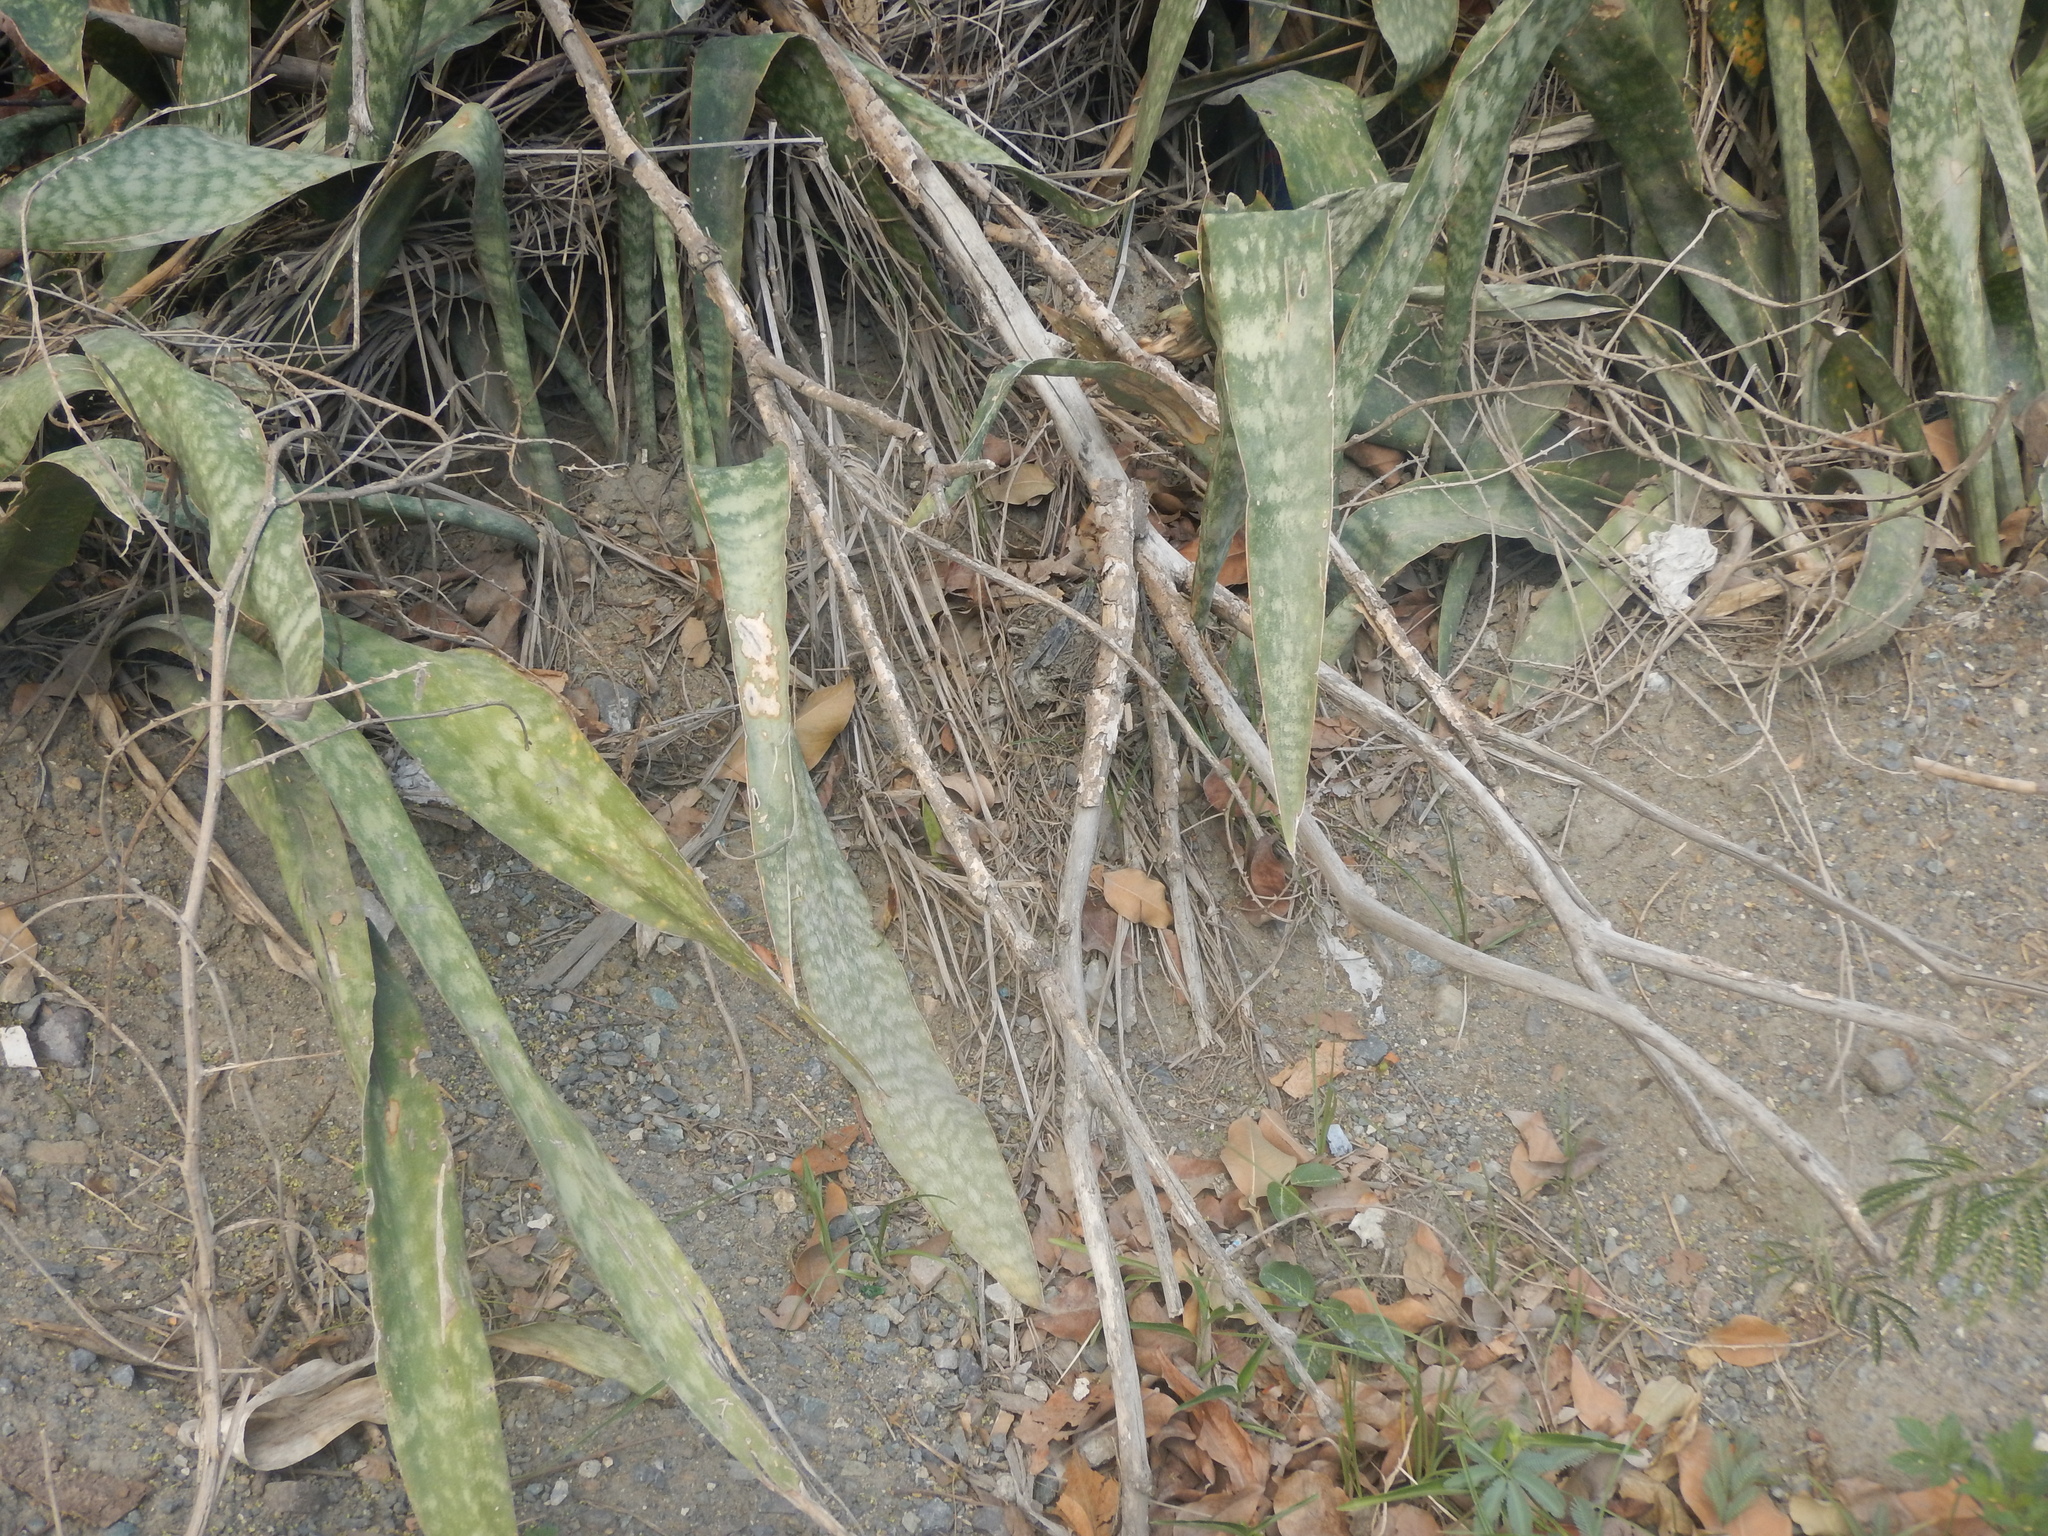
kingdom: Plantae
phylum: Tracheophyta
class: Liliopsida
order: Asparagales
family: Asparagaceae
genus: Dracaena
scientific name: Dracaena hyacinthoides
